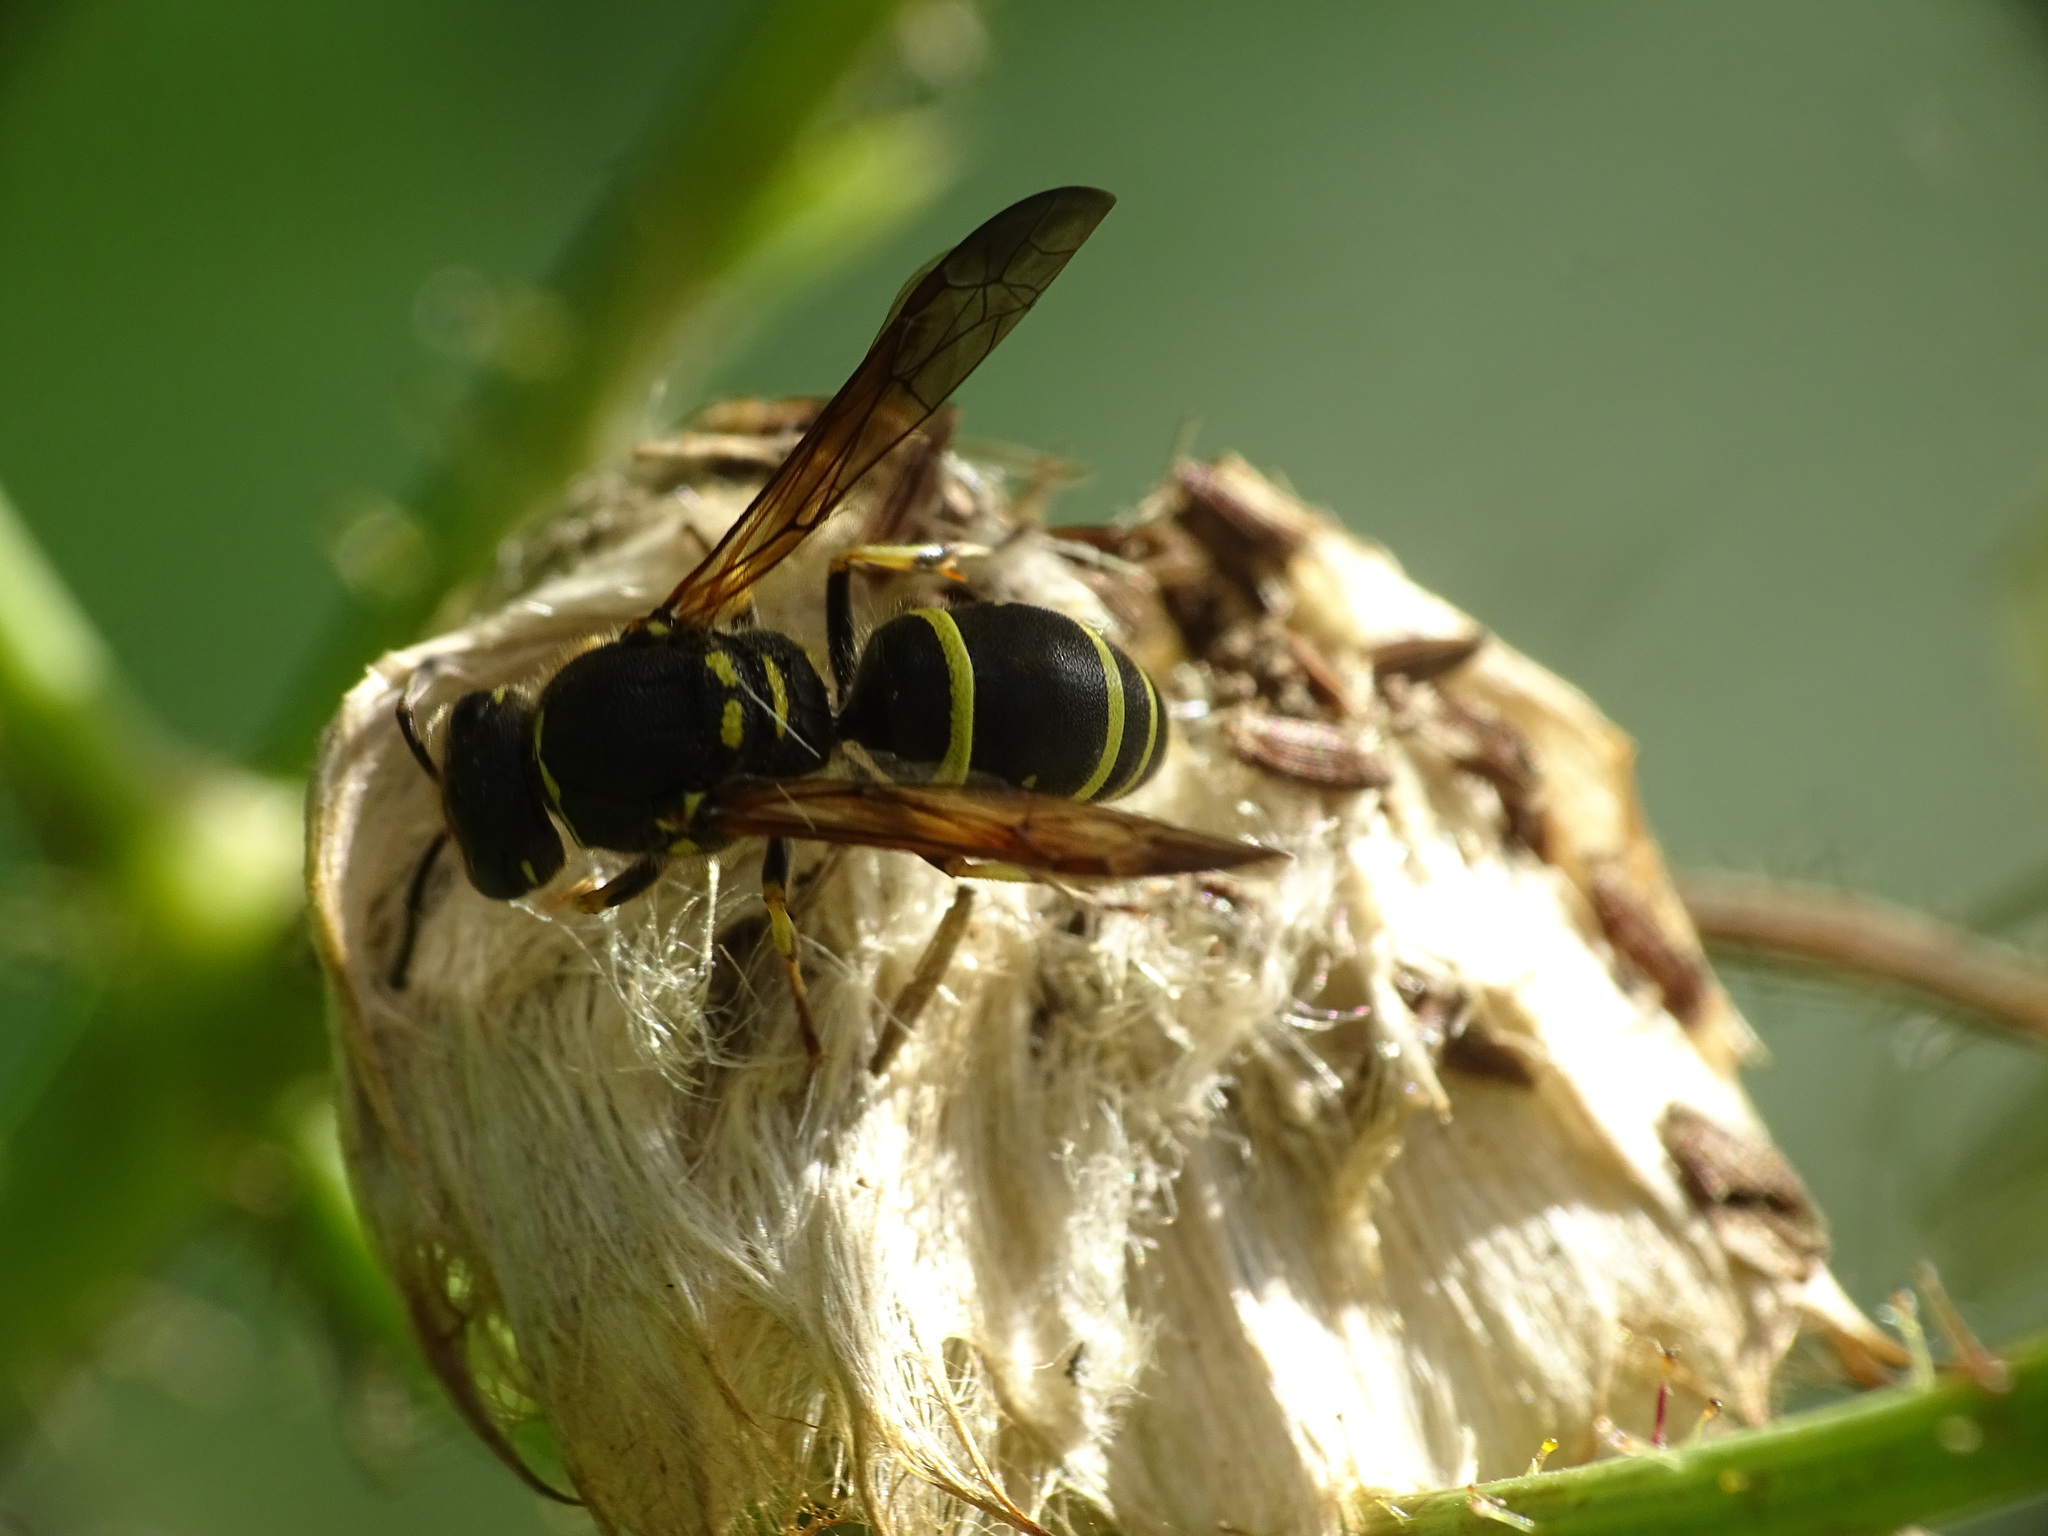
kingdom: Animalia
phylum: Arthropoda
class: Insecta
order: Hymenoptera
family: Vespidae
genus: Ancistrocerus
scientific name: Ancistrocerus catskill
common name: Vespid wasp
